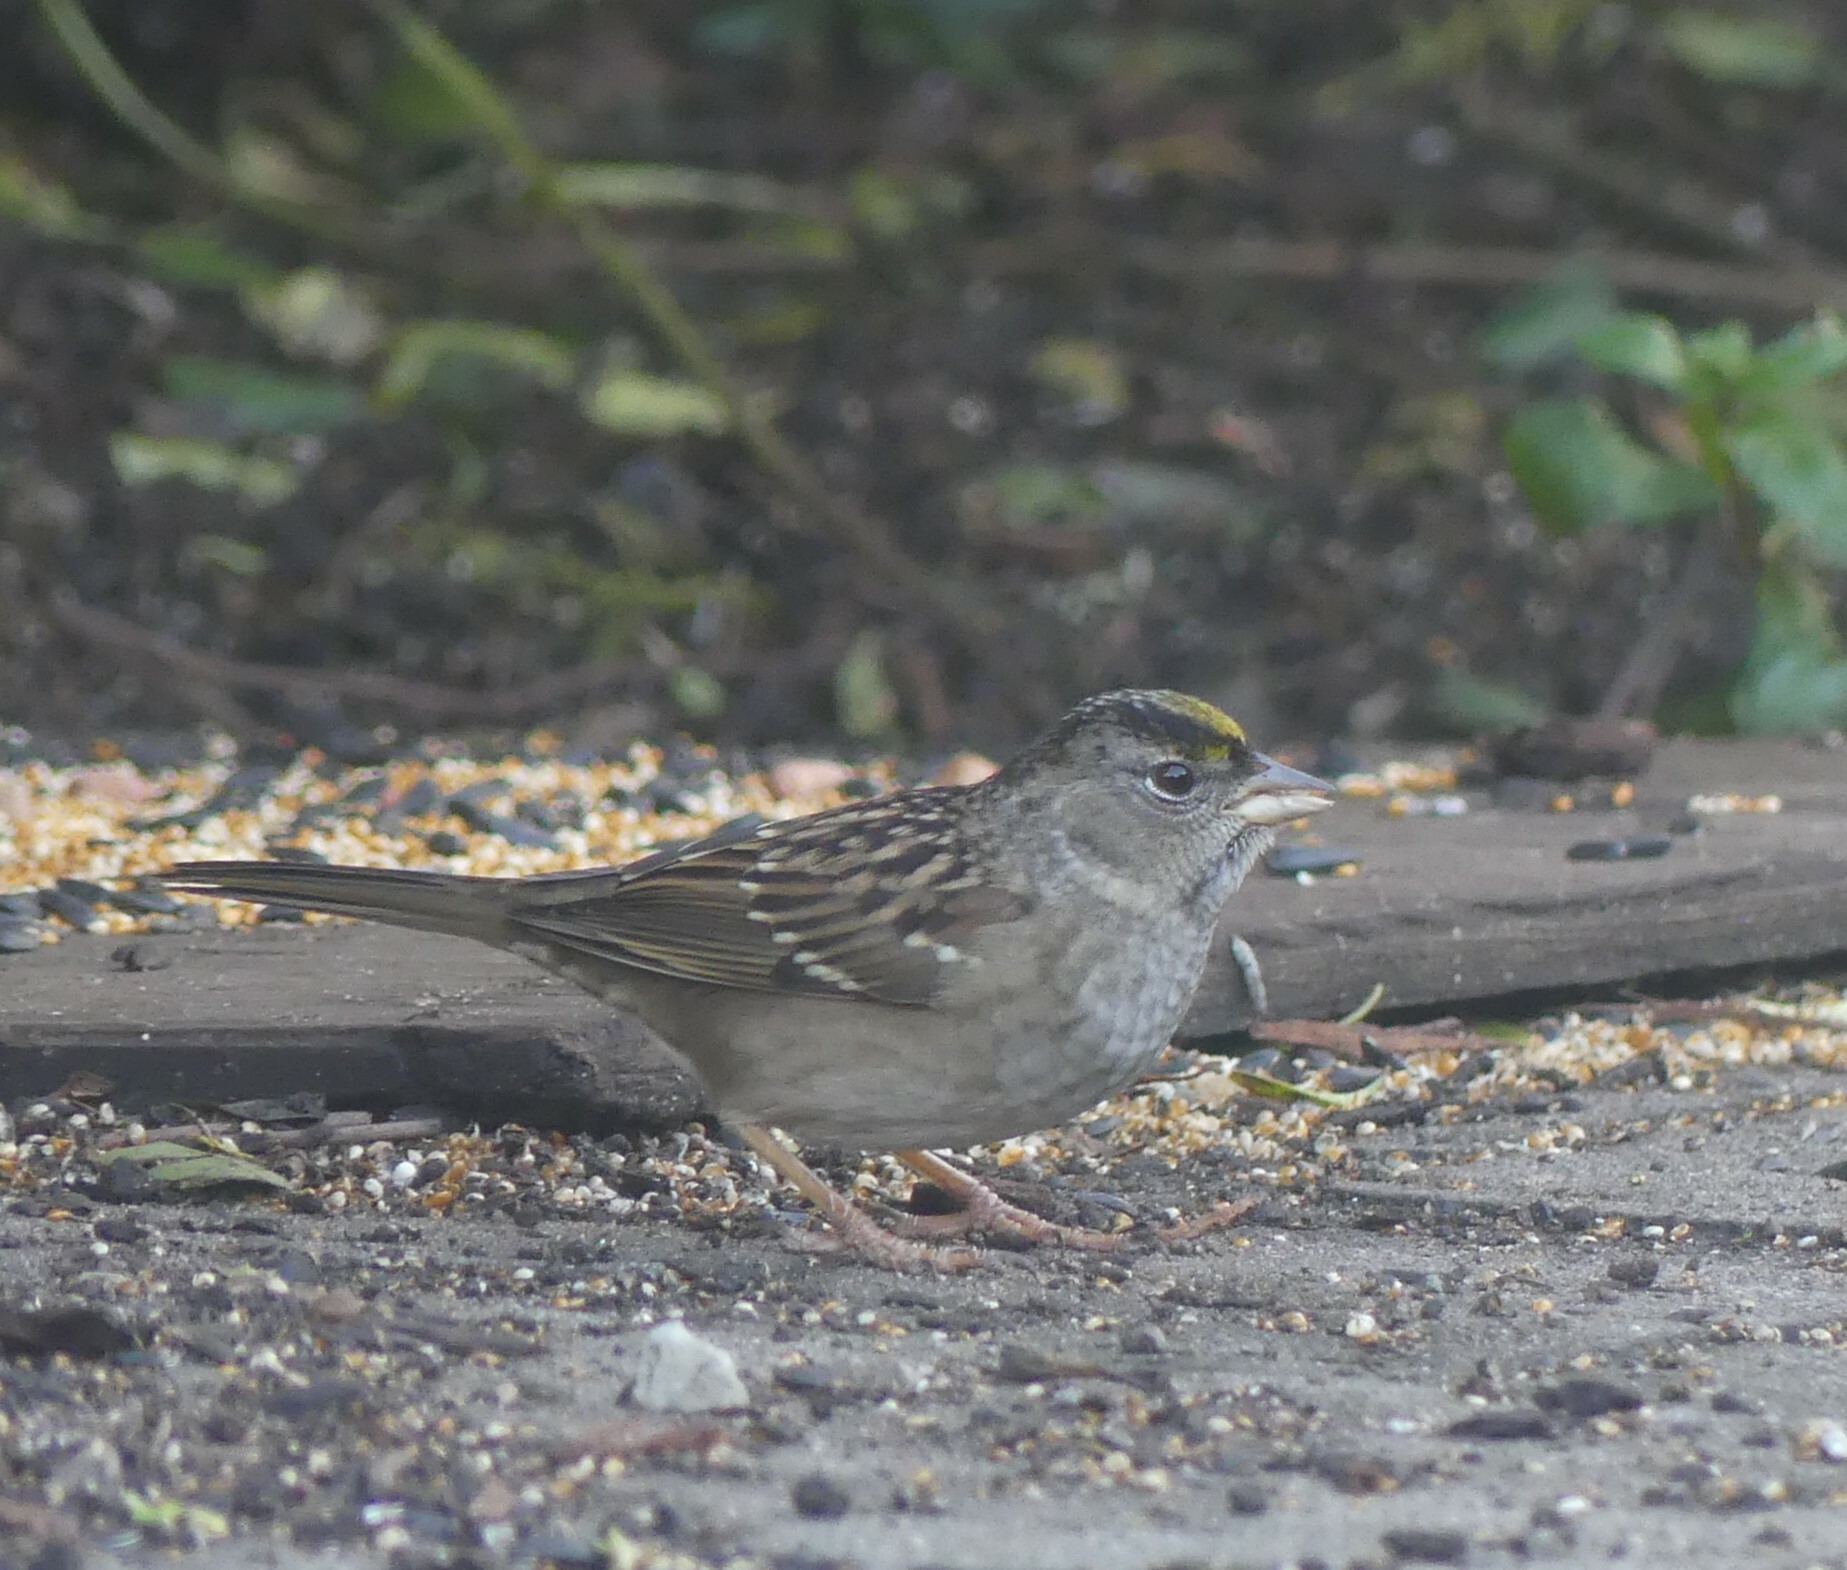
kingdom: Animalia
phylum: Chordata
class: Aves
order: Passeriformes
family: Passerellidae
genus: Zonotrichia
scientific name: Zonotrichia atricapilla
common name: Golden-crowned sparrow
